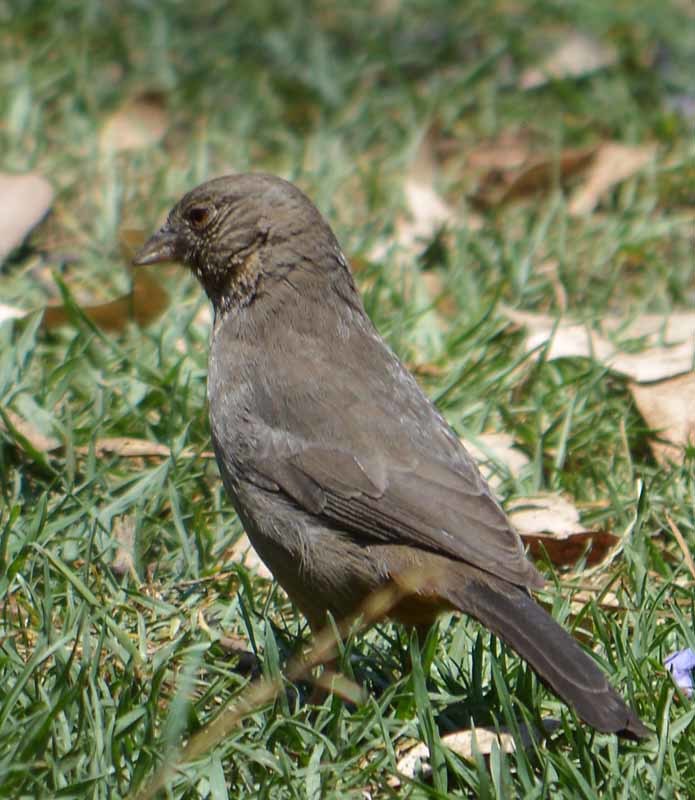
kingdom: Animalia
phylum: Chordata
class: Aves
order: Passeriformes
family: Passerellidae
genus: Melozone
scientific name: Melozone fusca
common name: Canyon towhee
